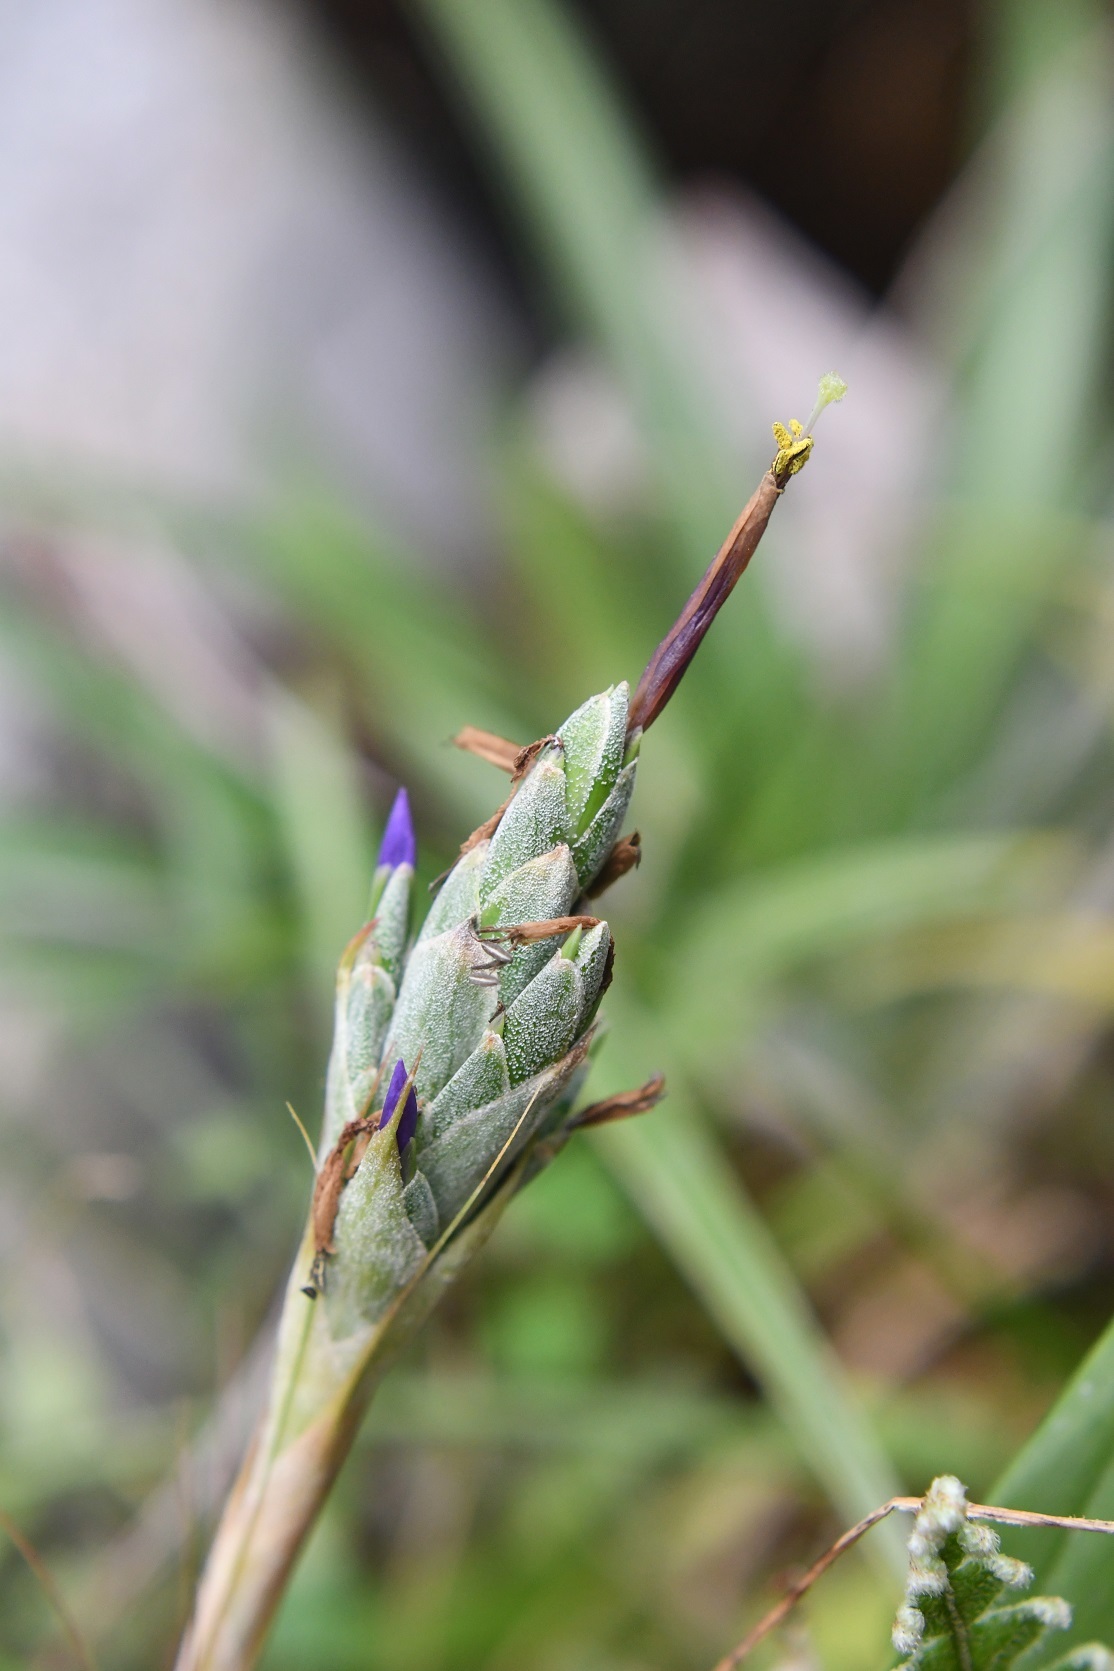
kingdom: Plantae
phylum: Tracheophyta
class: Liliopsida
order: Poales
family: Bromeliaceae
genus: Tillandsia
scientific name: Tillandsia juncea
